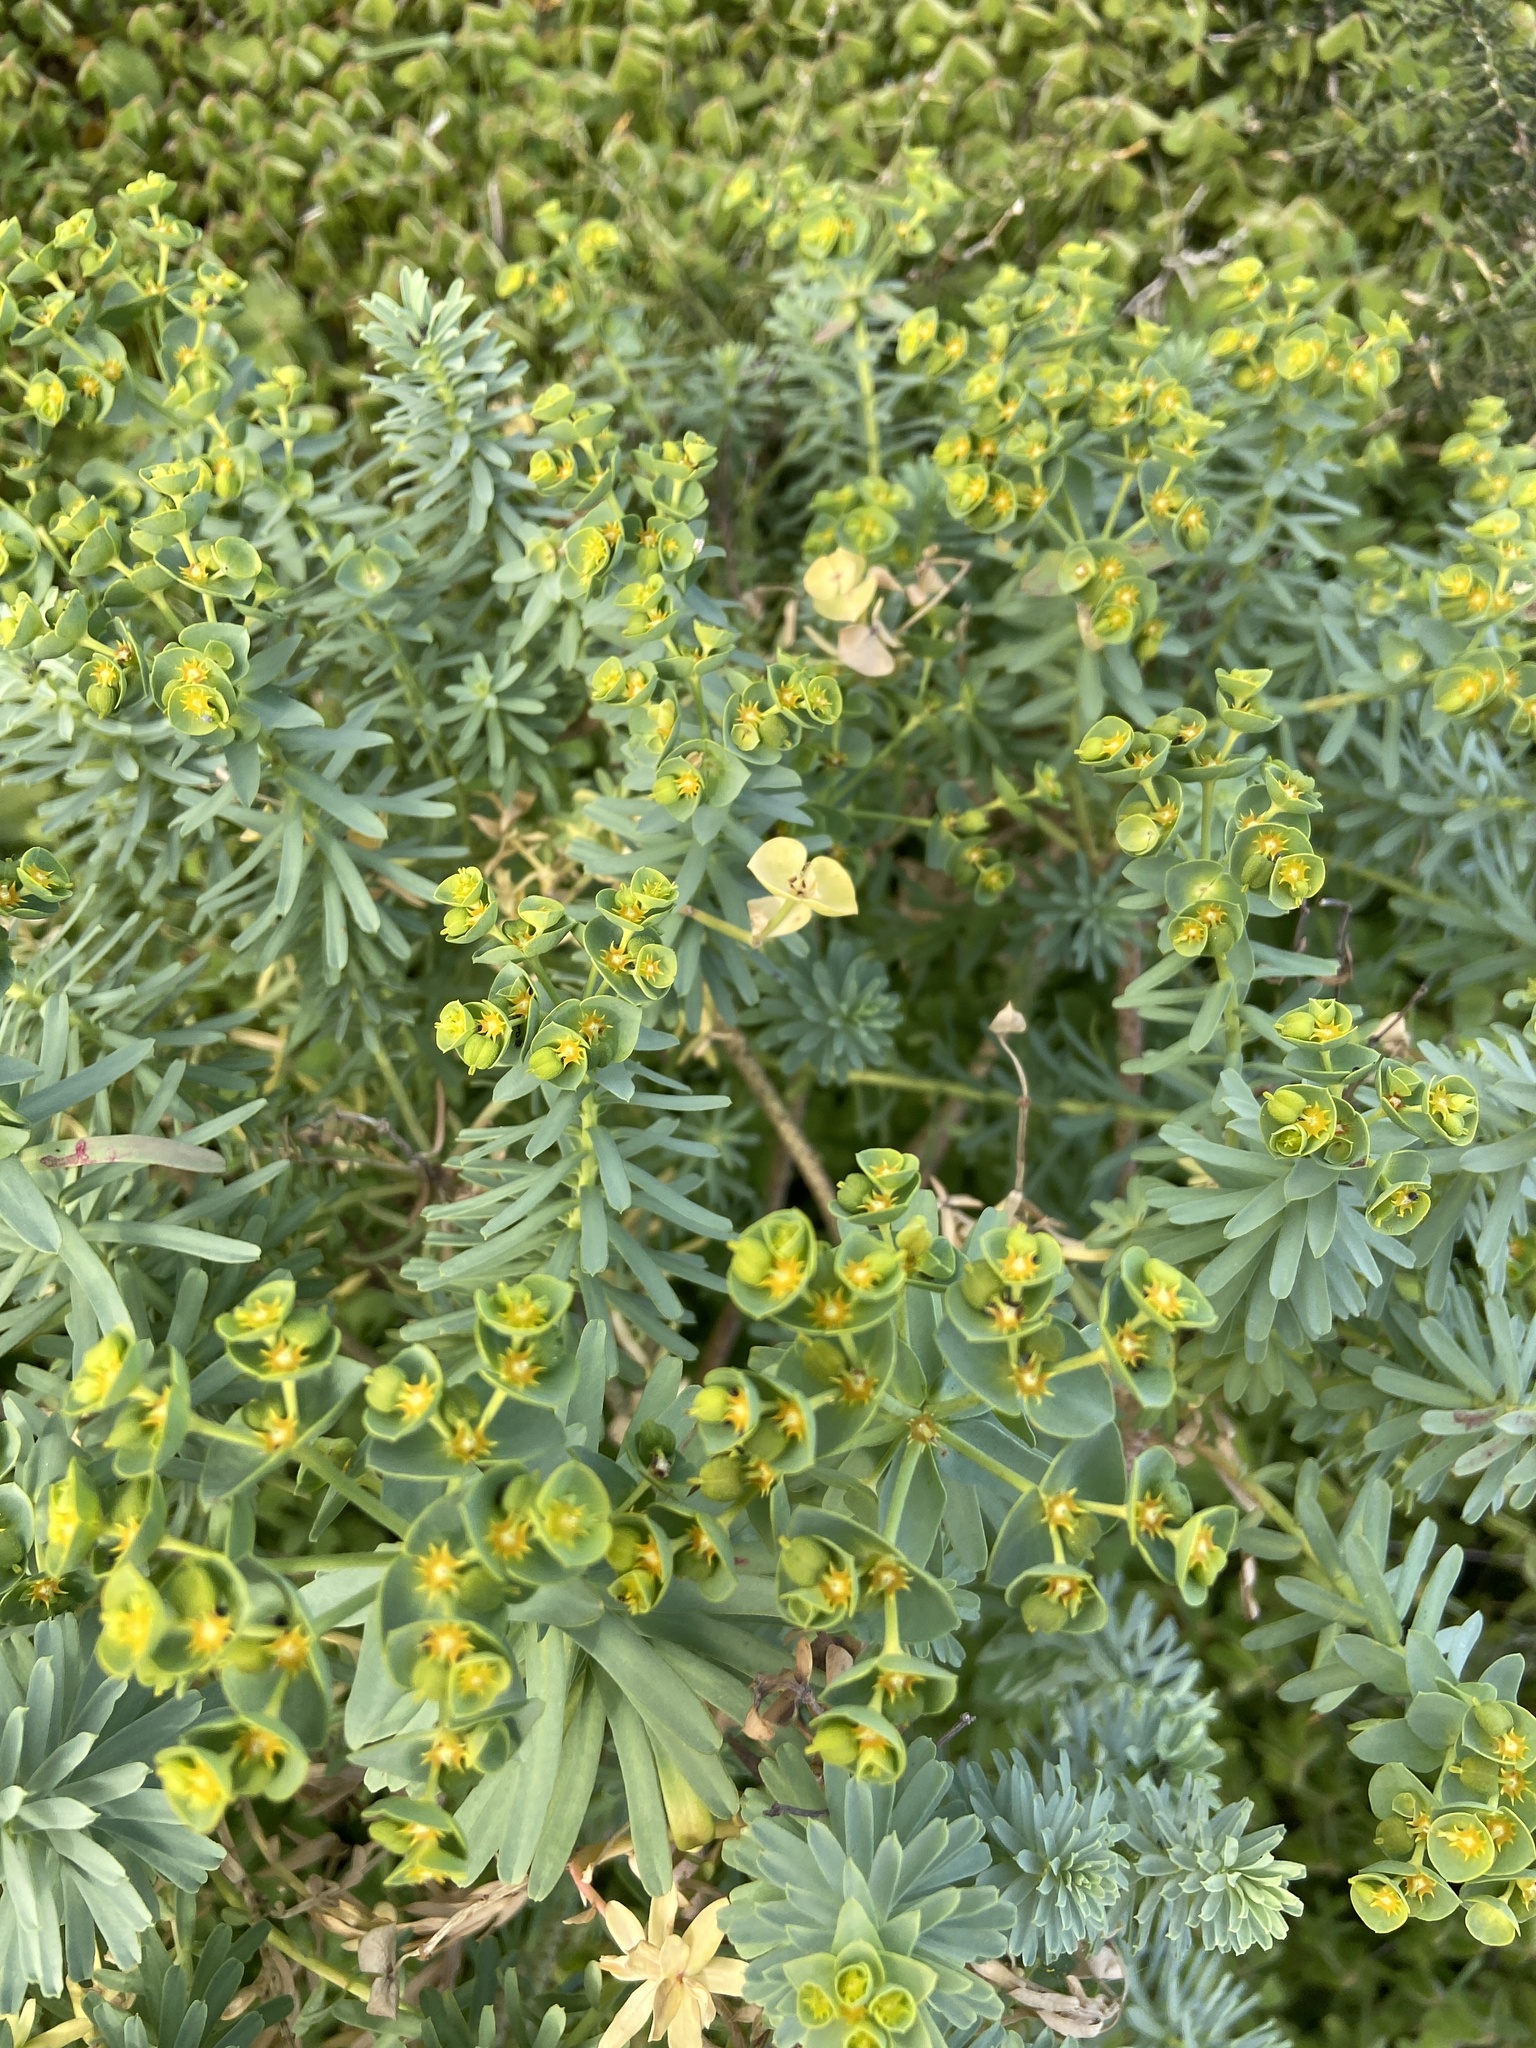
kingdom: Plantae
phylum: Tracheophyta
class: Magnoliopsida
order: Malpighiales
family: Euphorbiaceae
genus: Euphorbia
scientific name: Euphorbia segetalis
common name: Corn spurge
